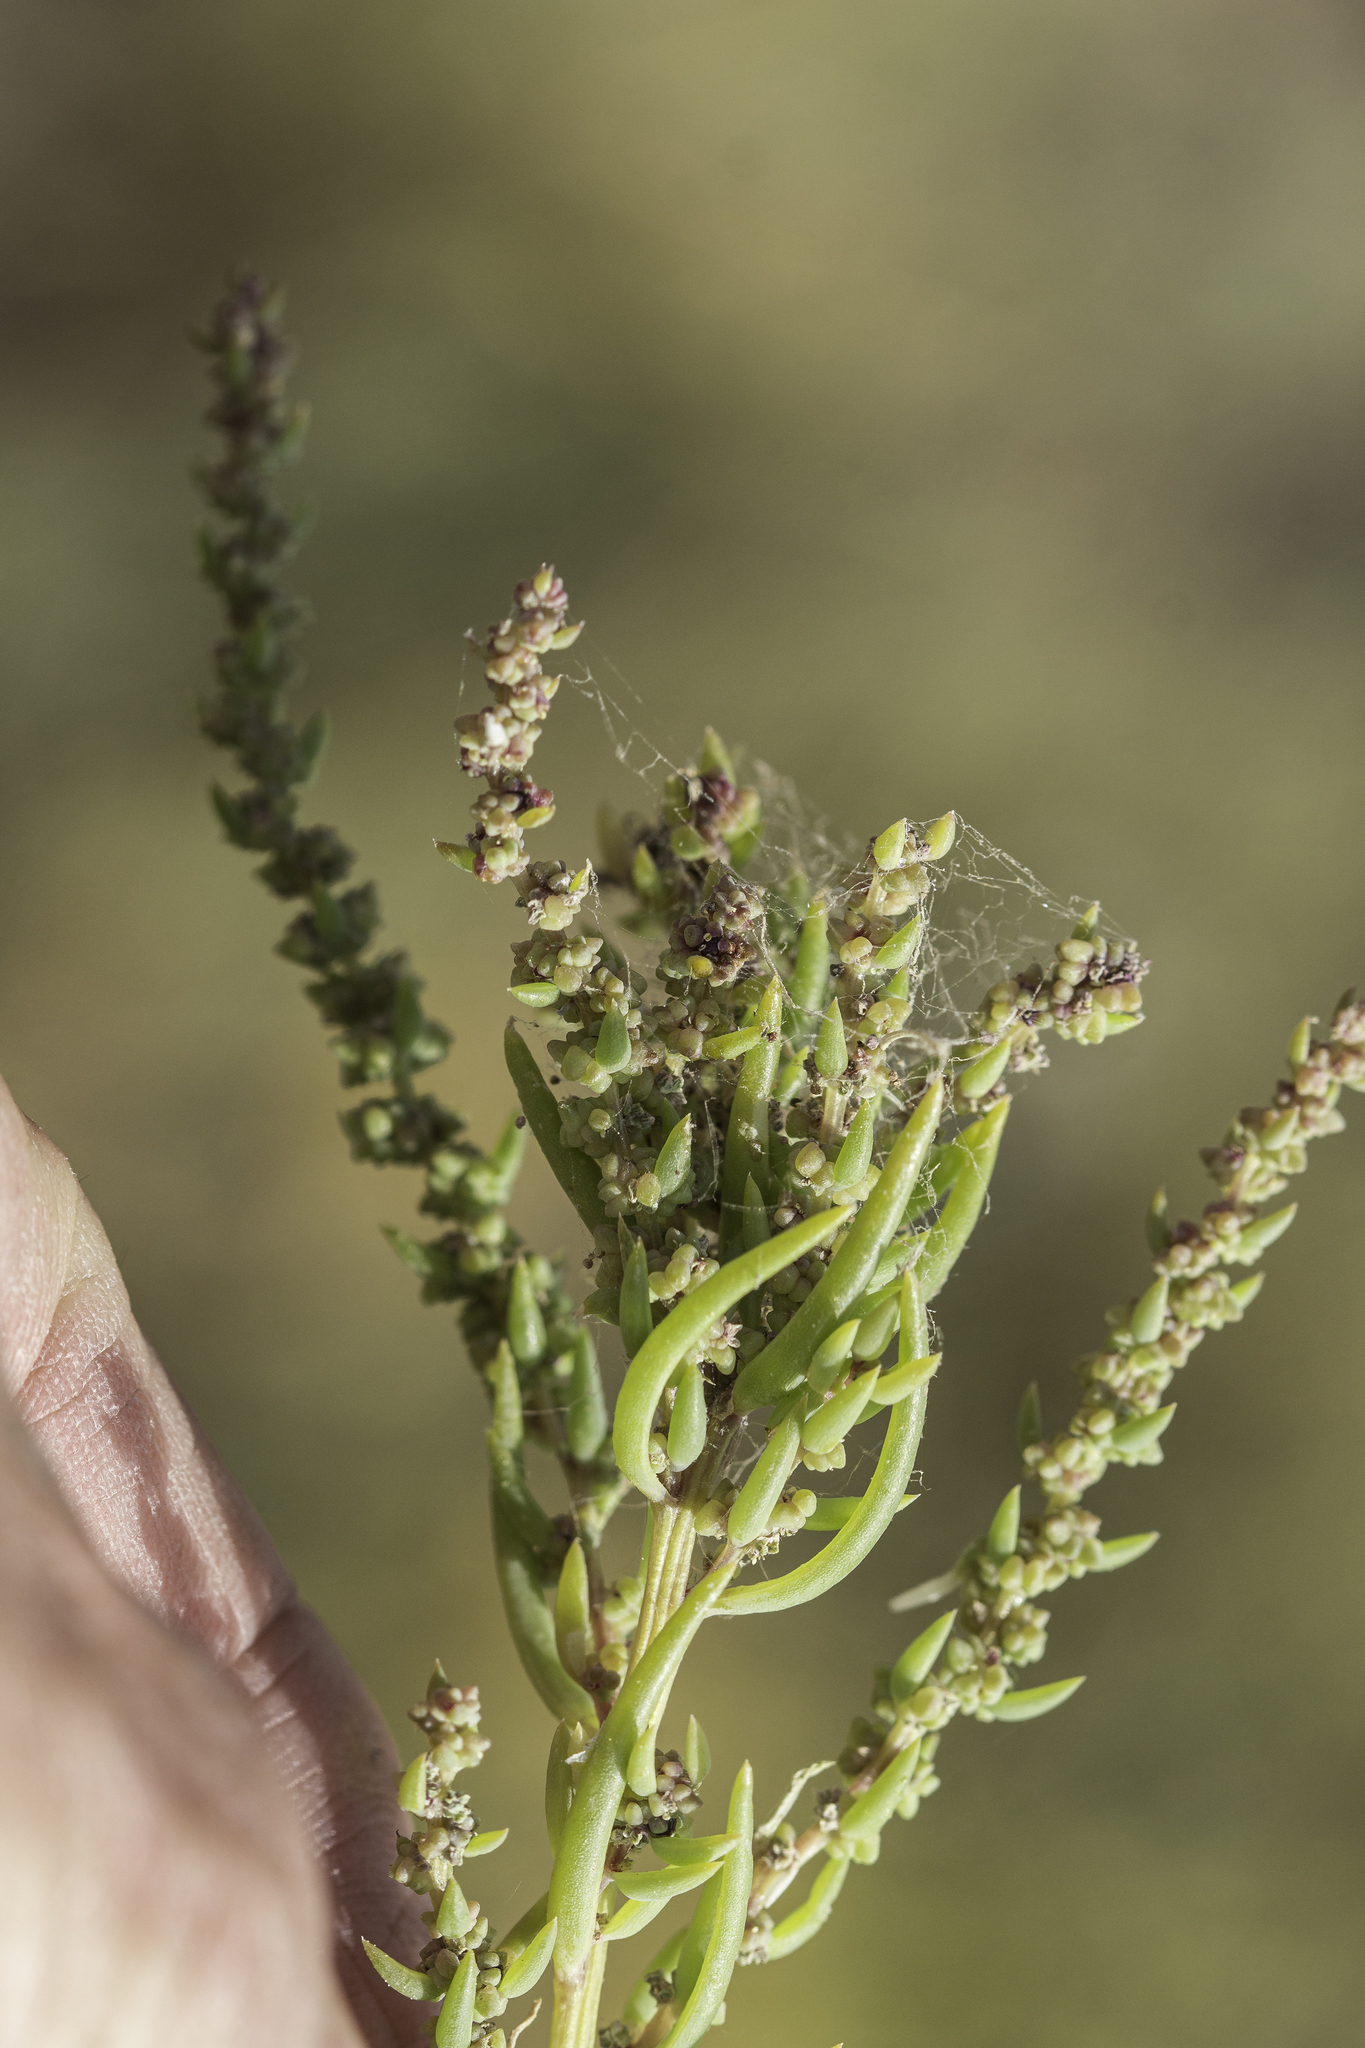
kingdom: Plantae
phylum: Tracheophyta
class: Magnoliopsida
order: Caryophyllales
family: Amaranthaceae
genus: Suaeda
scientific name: Suaeda calceoliformis
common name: Pursh's seepweed
